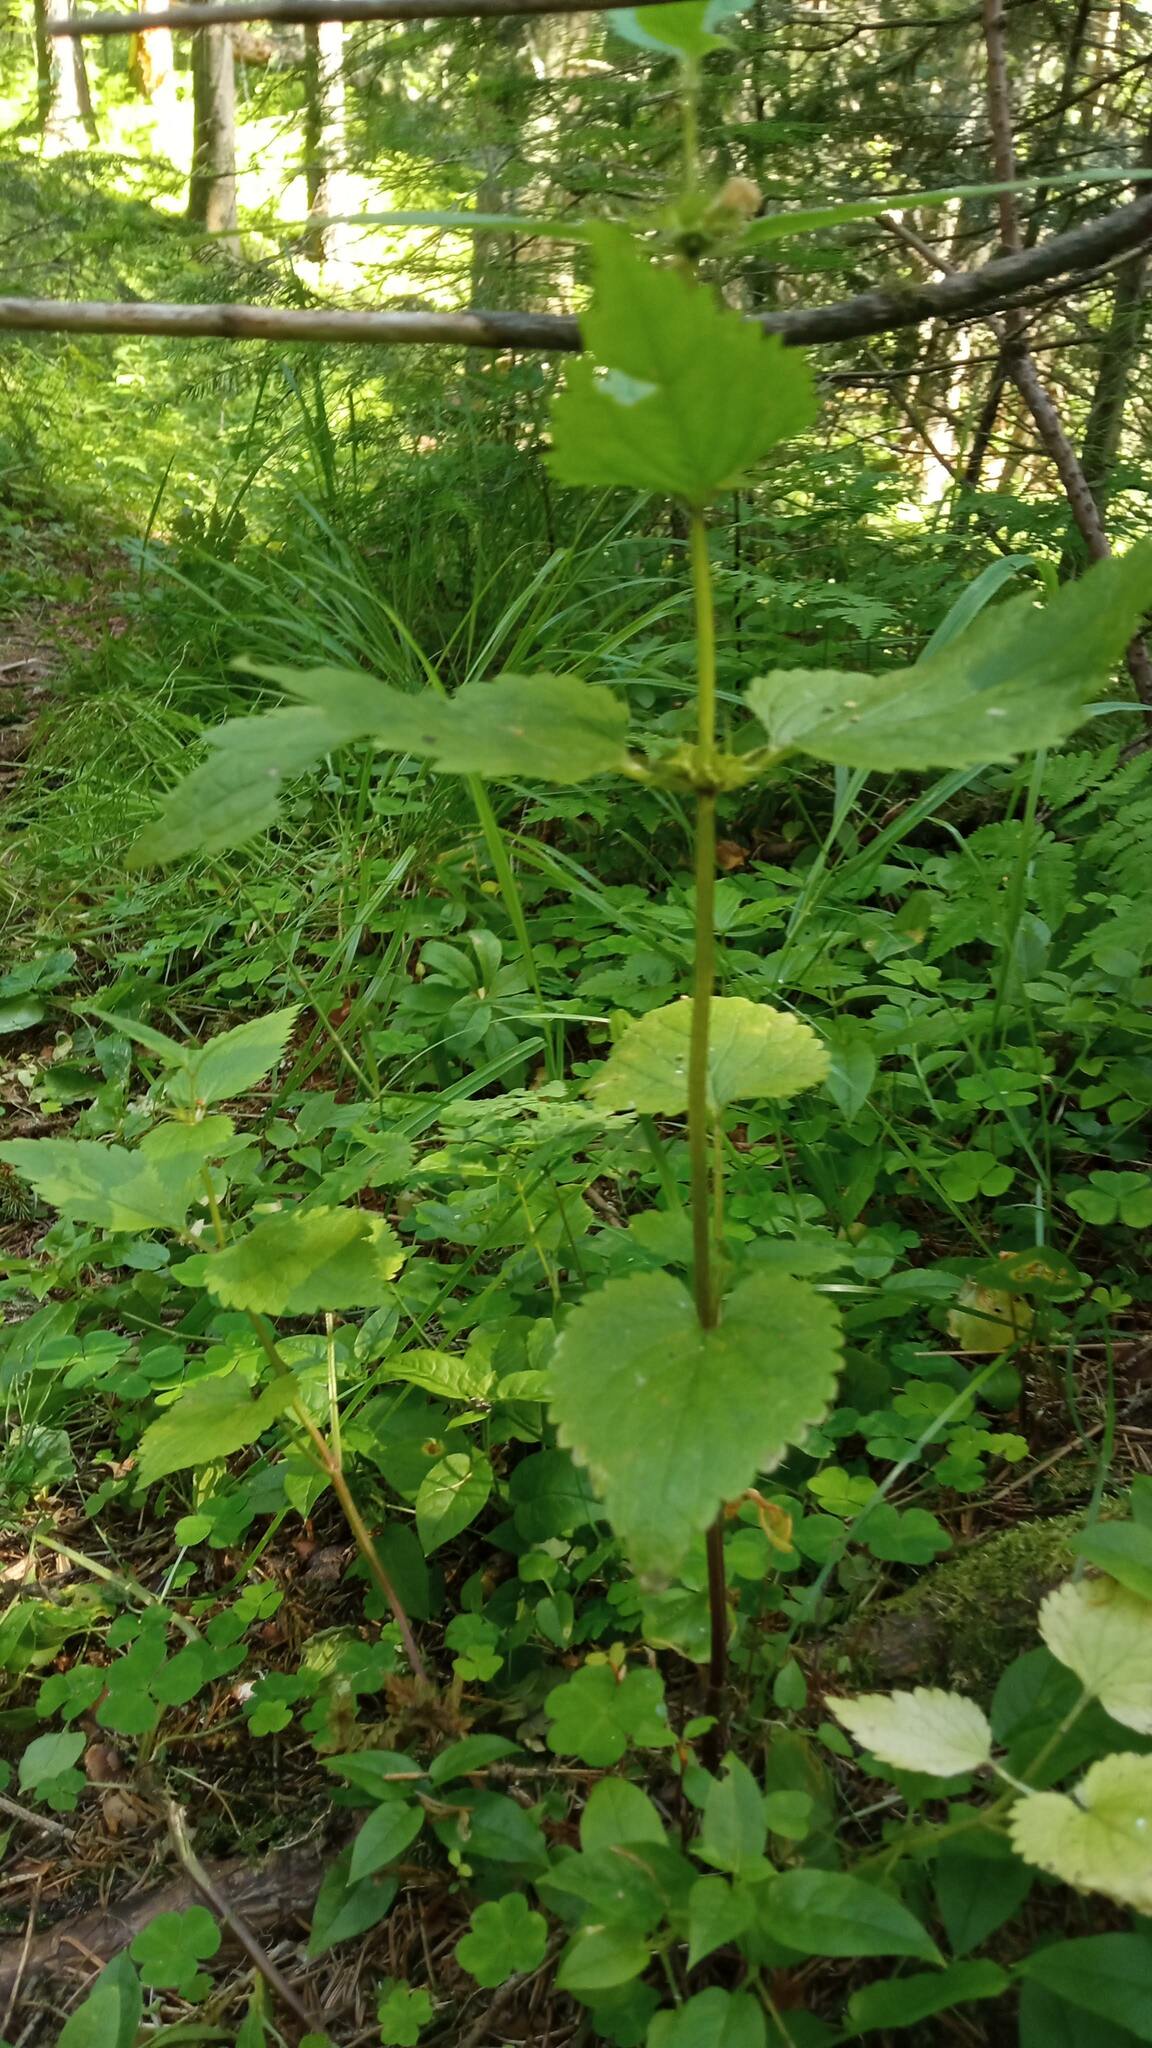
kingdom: Plantae
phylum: Tracheophyta
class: Magnoliopsida
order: Lamiales
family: Lamiaceae
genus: Lamium
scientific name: Lamium album
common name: White dead-nettle
